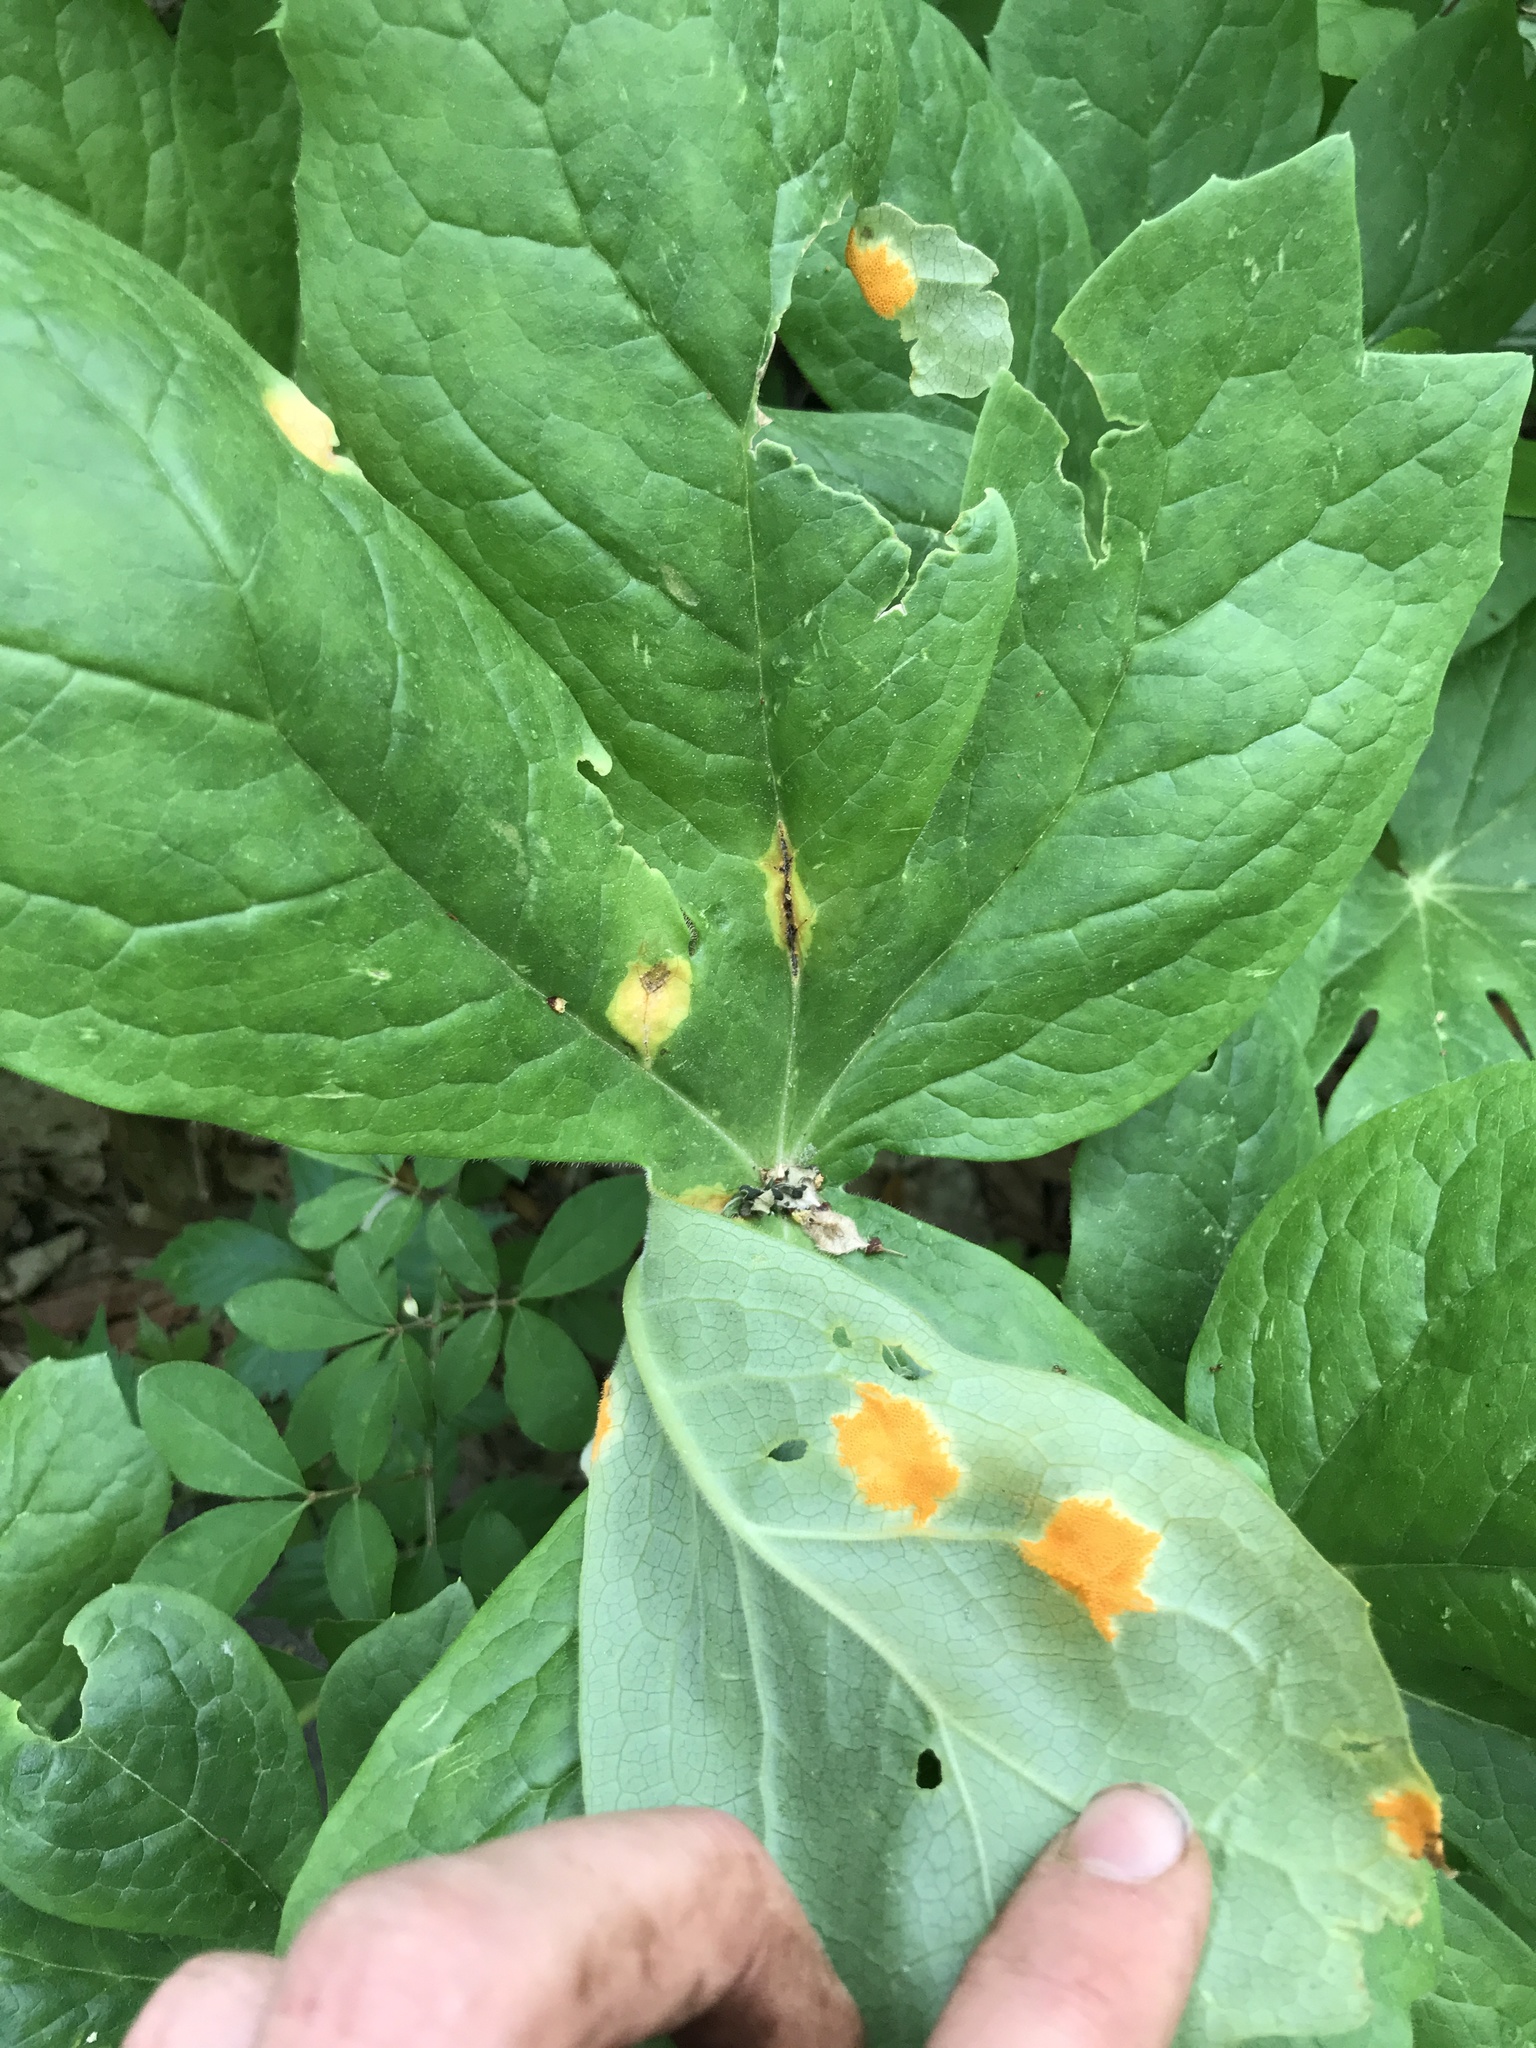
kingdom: Fungi
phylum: Basidiomycota
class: Pucciniomycetes
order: Pucciniales
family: Pucciniaceae
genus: Puccinia
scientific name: Puccinia podophylli
